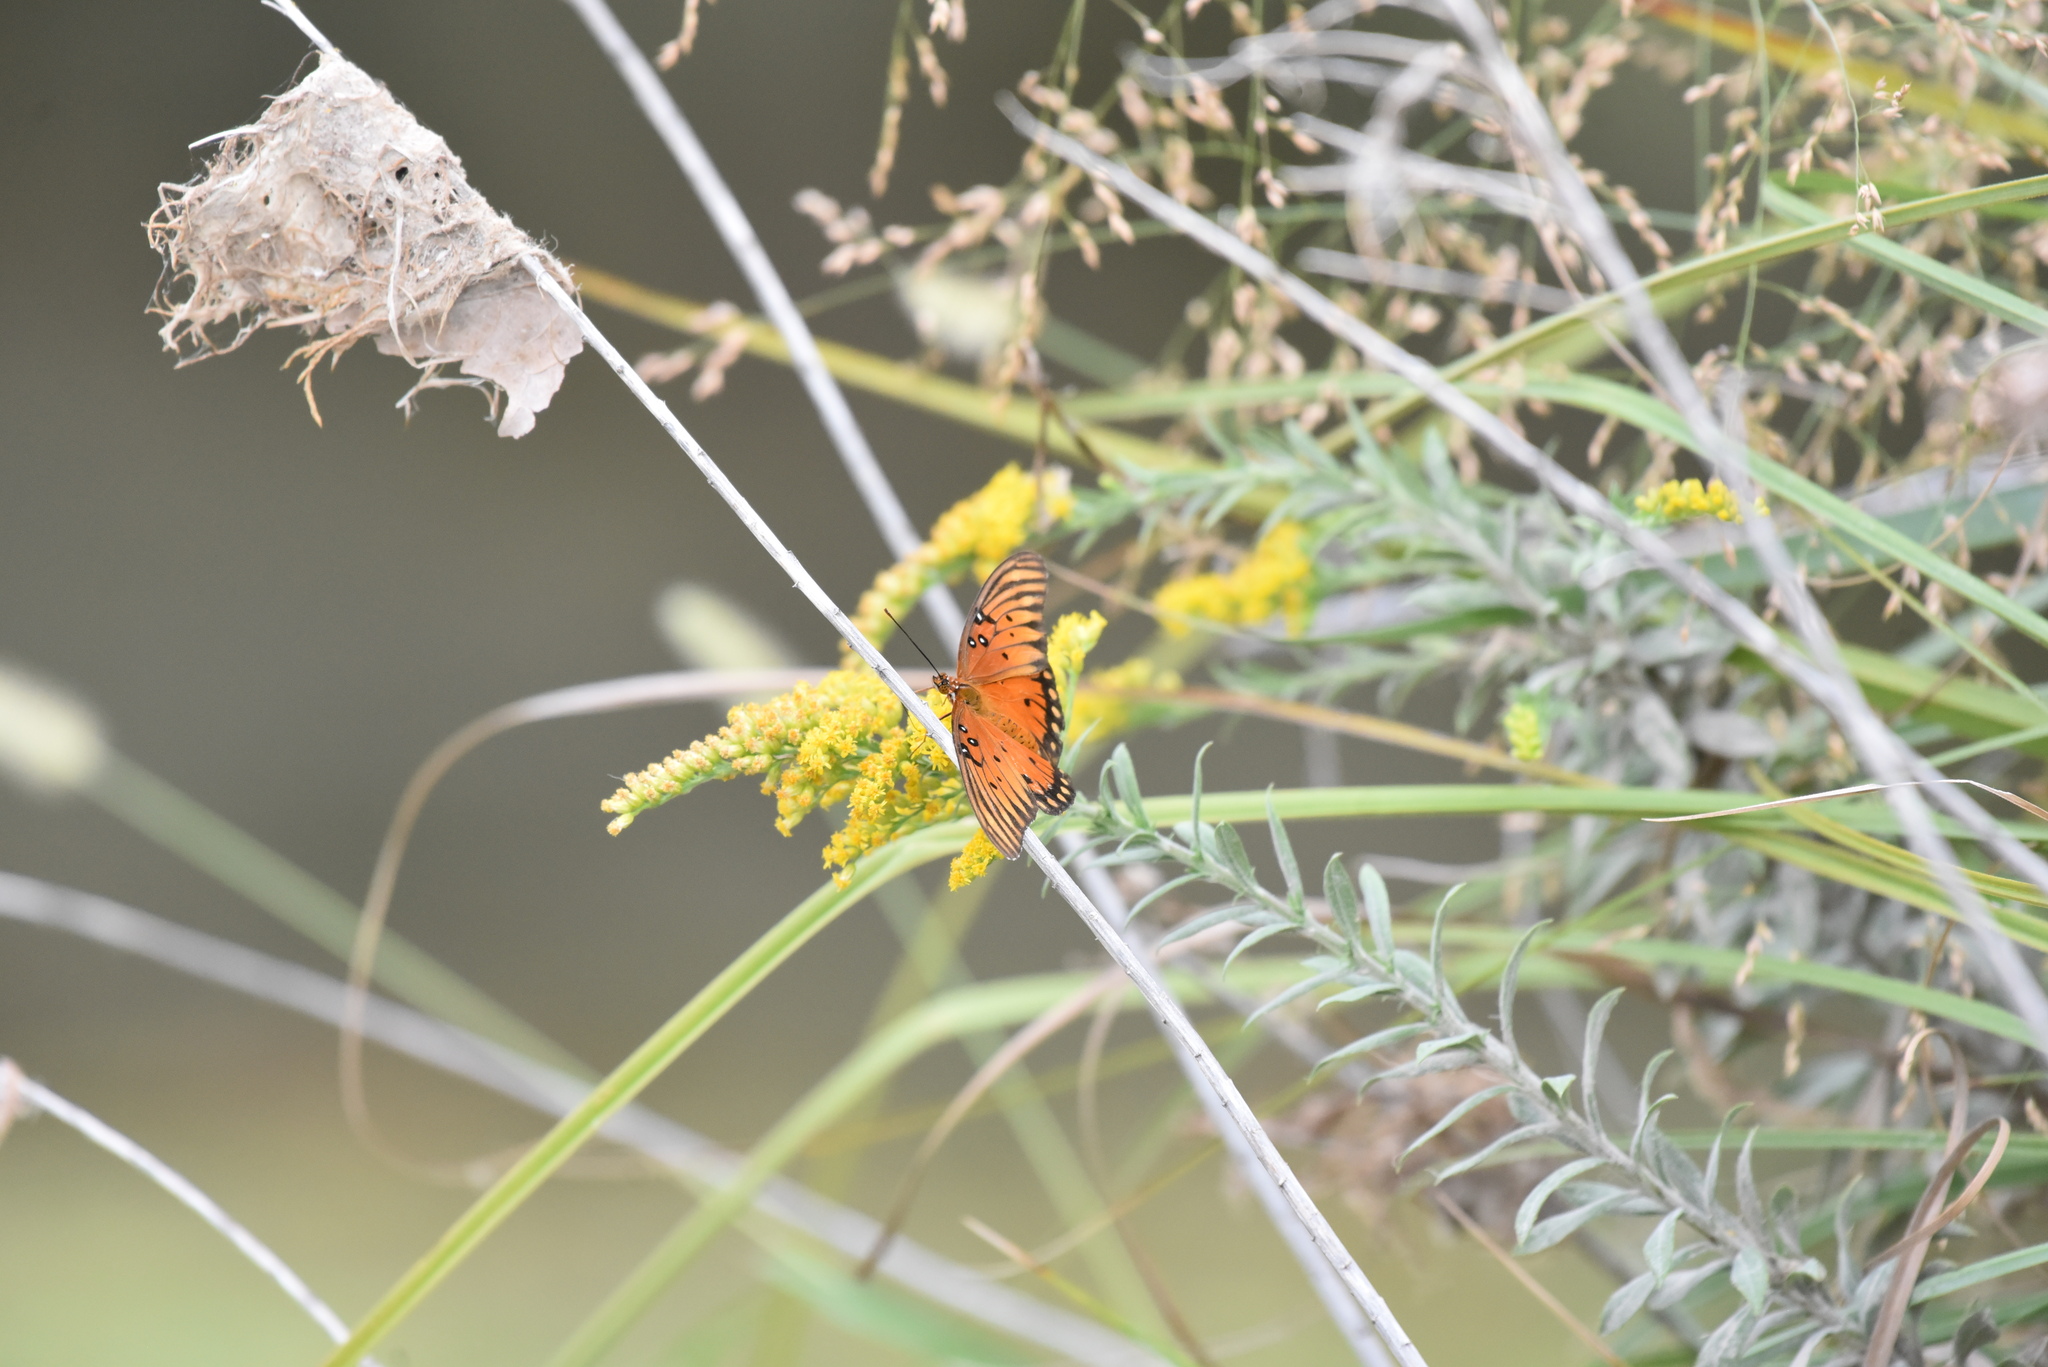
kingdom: Animalia
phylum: Arthropoda
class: Insecta
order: Lepidoptera
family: Nymphalidae
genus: Dione
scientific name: Dione vanillae
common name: Gulf fritillary
